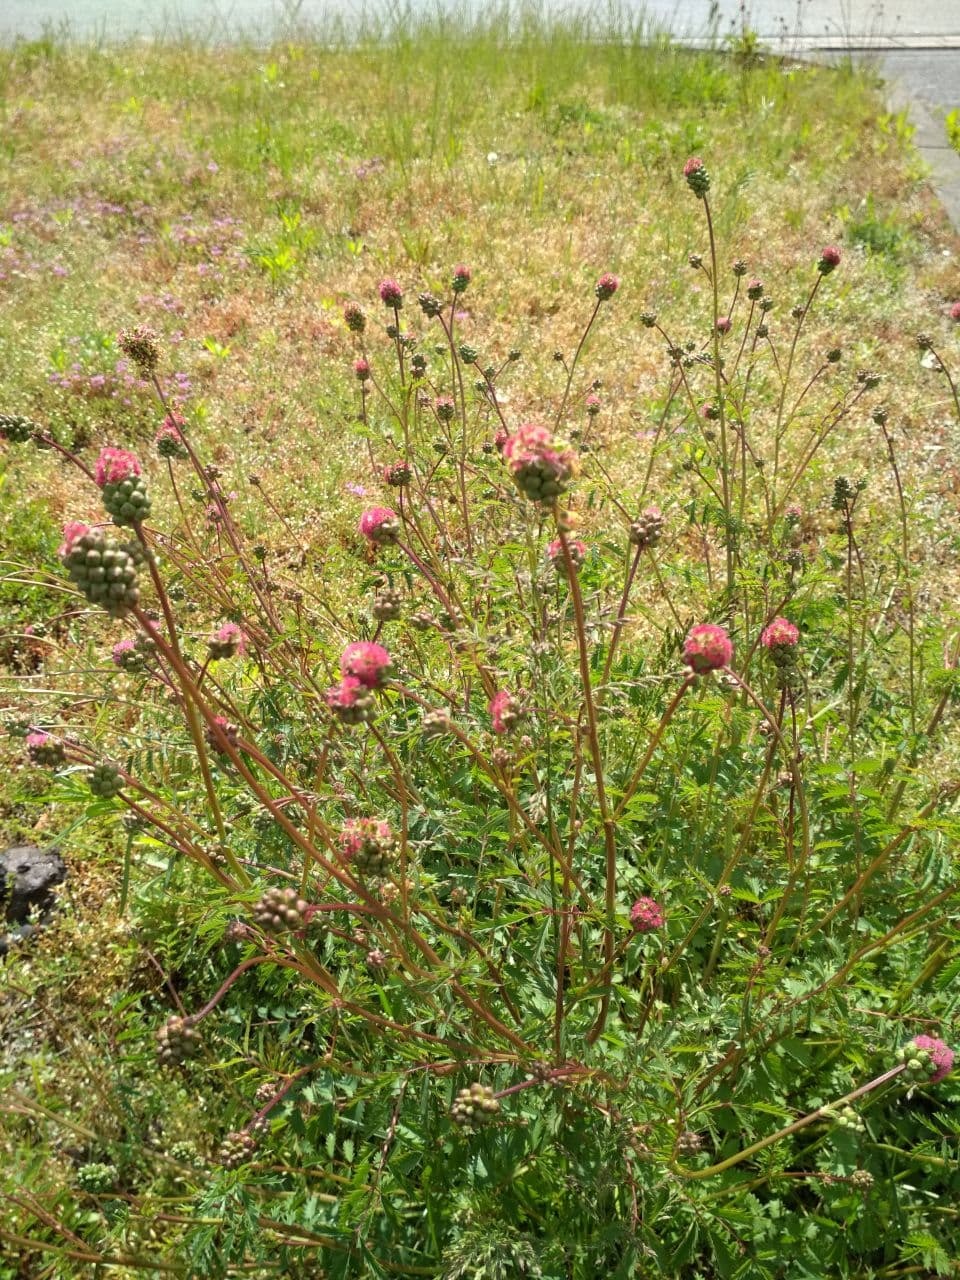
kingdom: Plantae
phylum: Tracheophyta
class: Magnoliopsida
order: Rosales
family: Rosaceae
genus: Poterium
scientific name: Poterium sanguisorba
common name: Salad burnet
